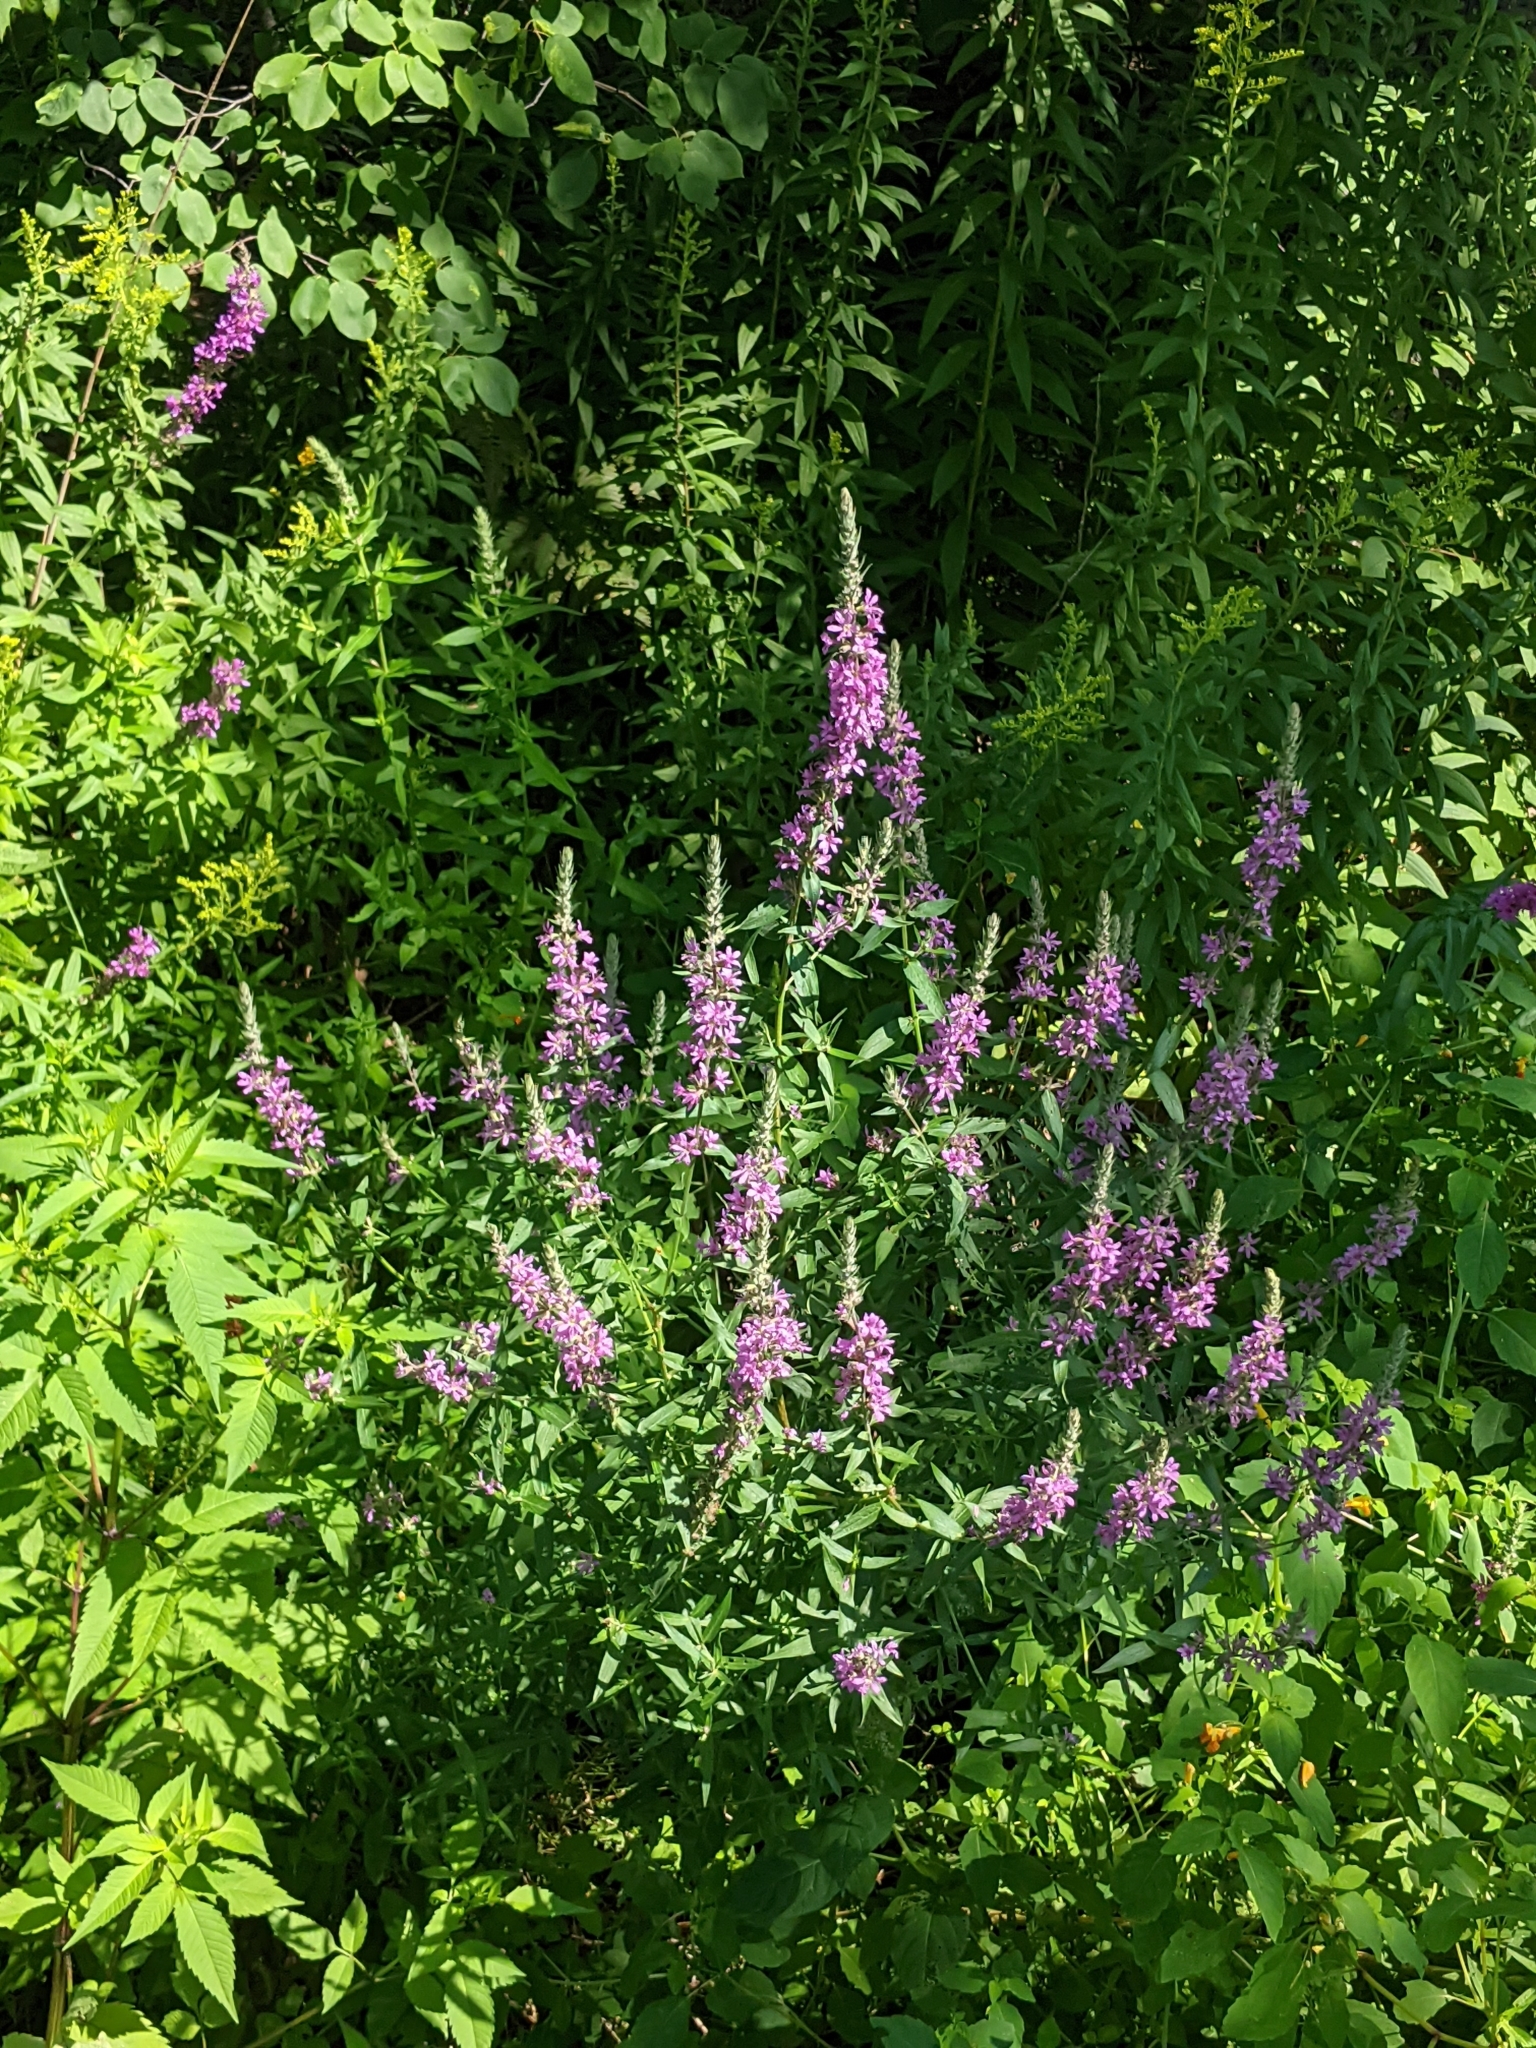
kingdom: Plantae
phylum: Tracheophyta
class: Magnoliopsida
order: Myrtales
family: Lythraceae
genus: Lythrum
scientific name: Lythrum salicaria
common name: Purple loosestrife
